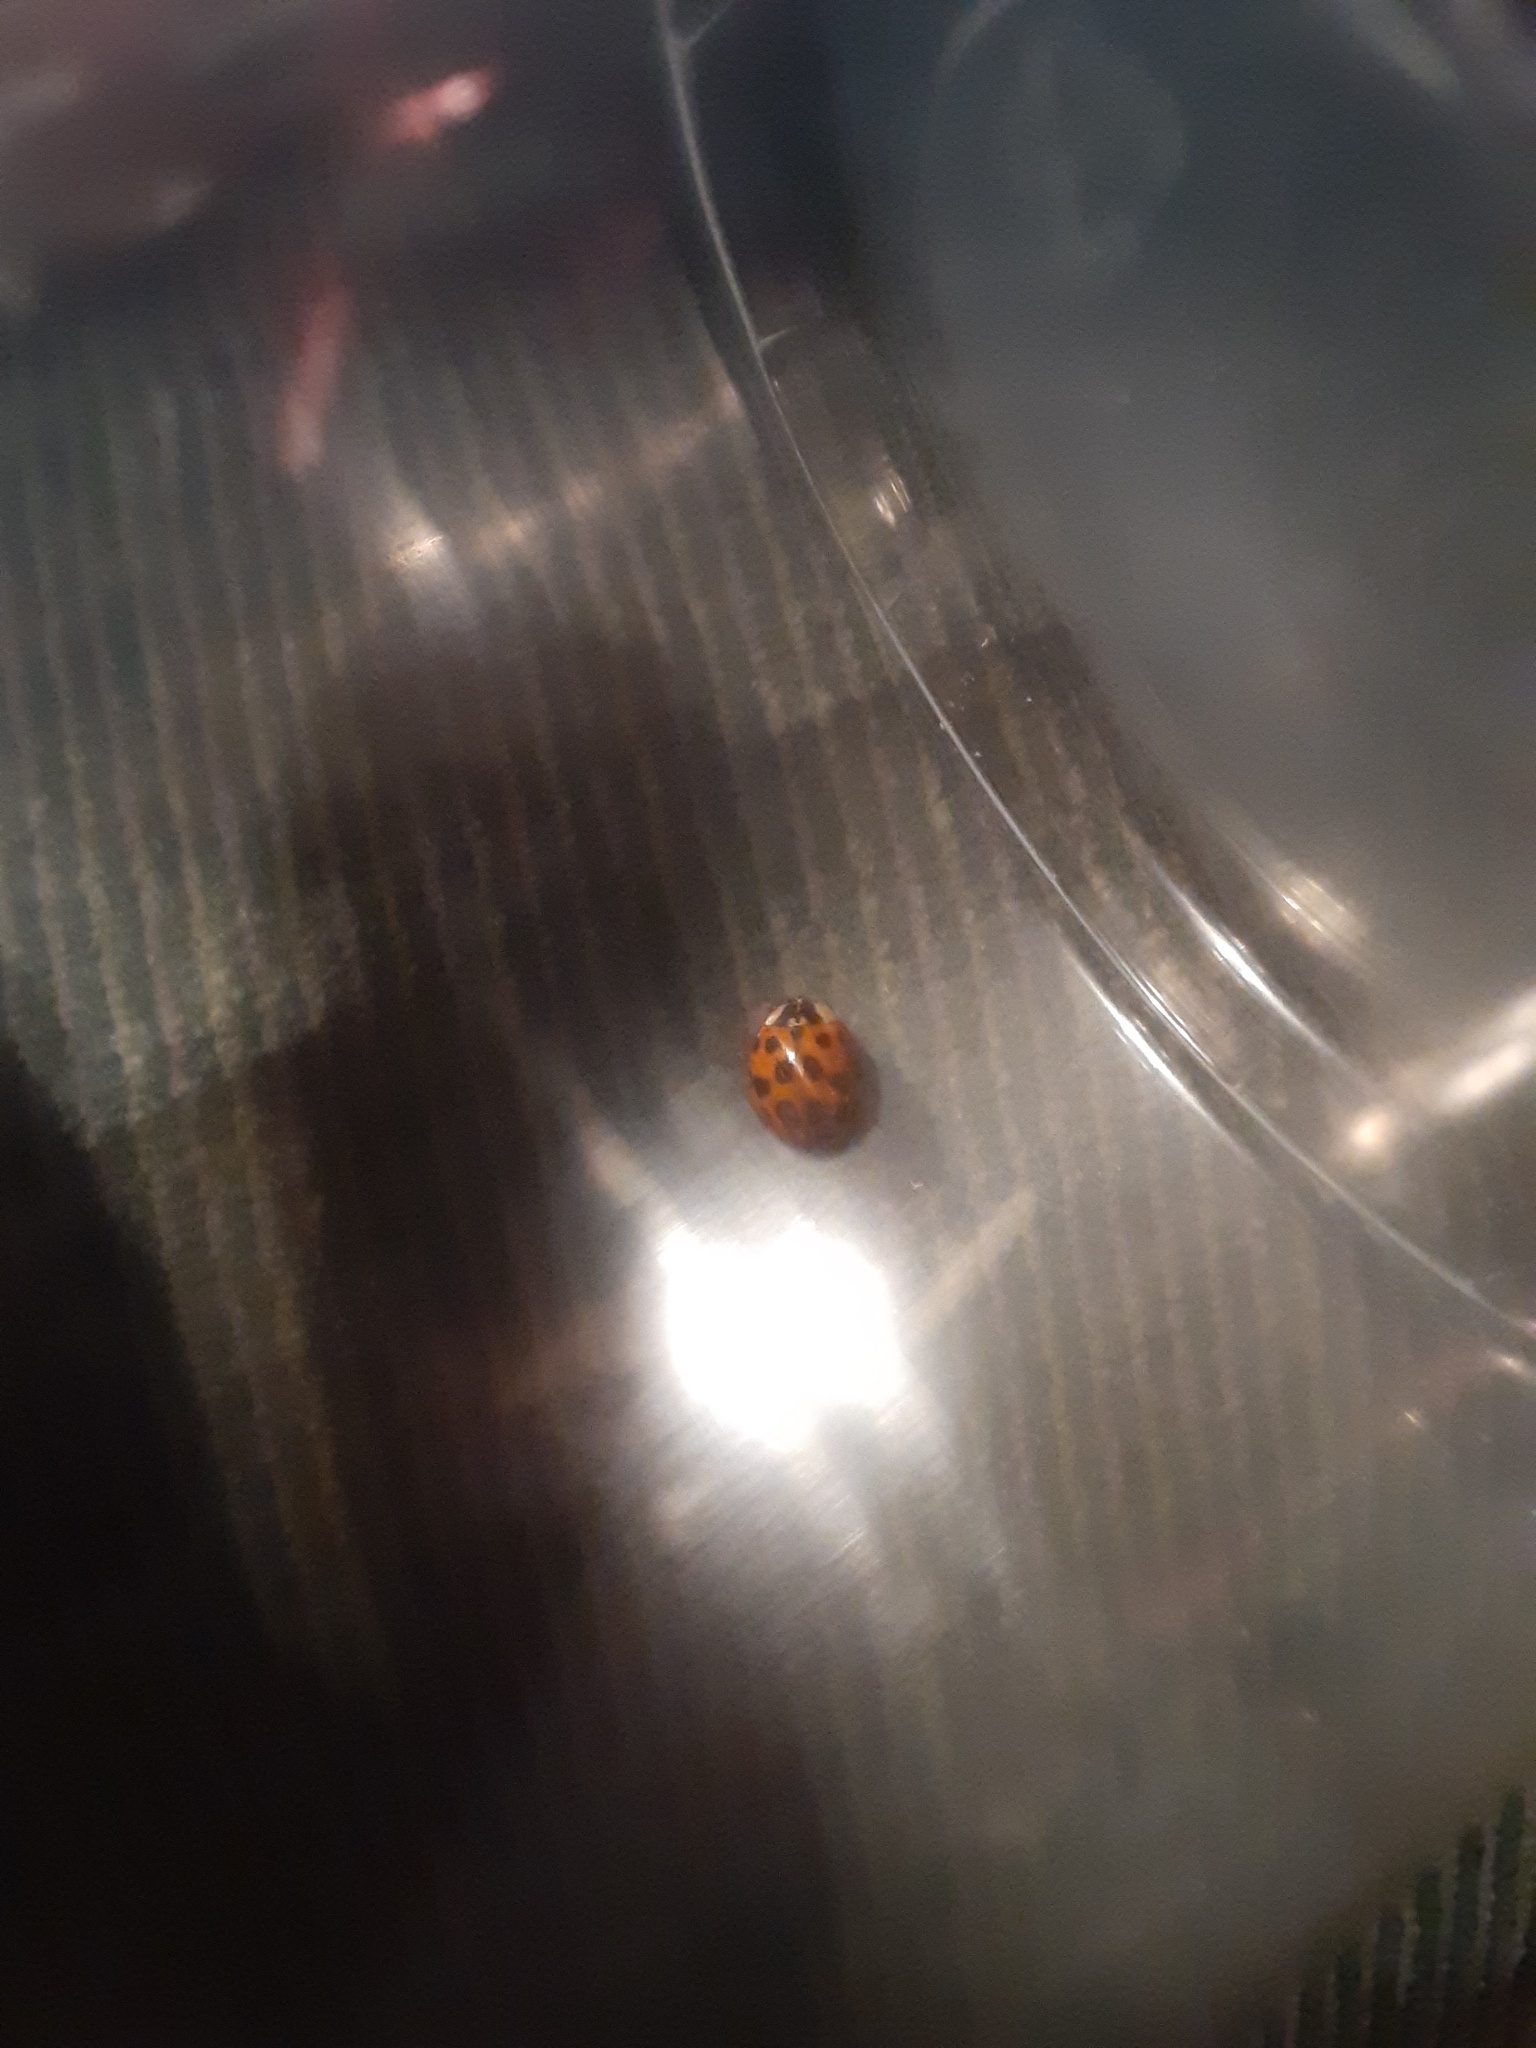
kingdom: Animalia
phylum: Arthropoda
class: Insecta
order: Coleoptera
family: Coccinellidae
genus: Harmonia
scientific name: Harmonia axyridis
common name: Harlequin ladybird
